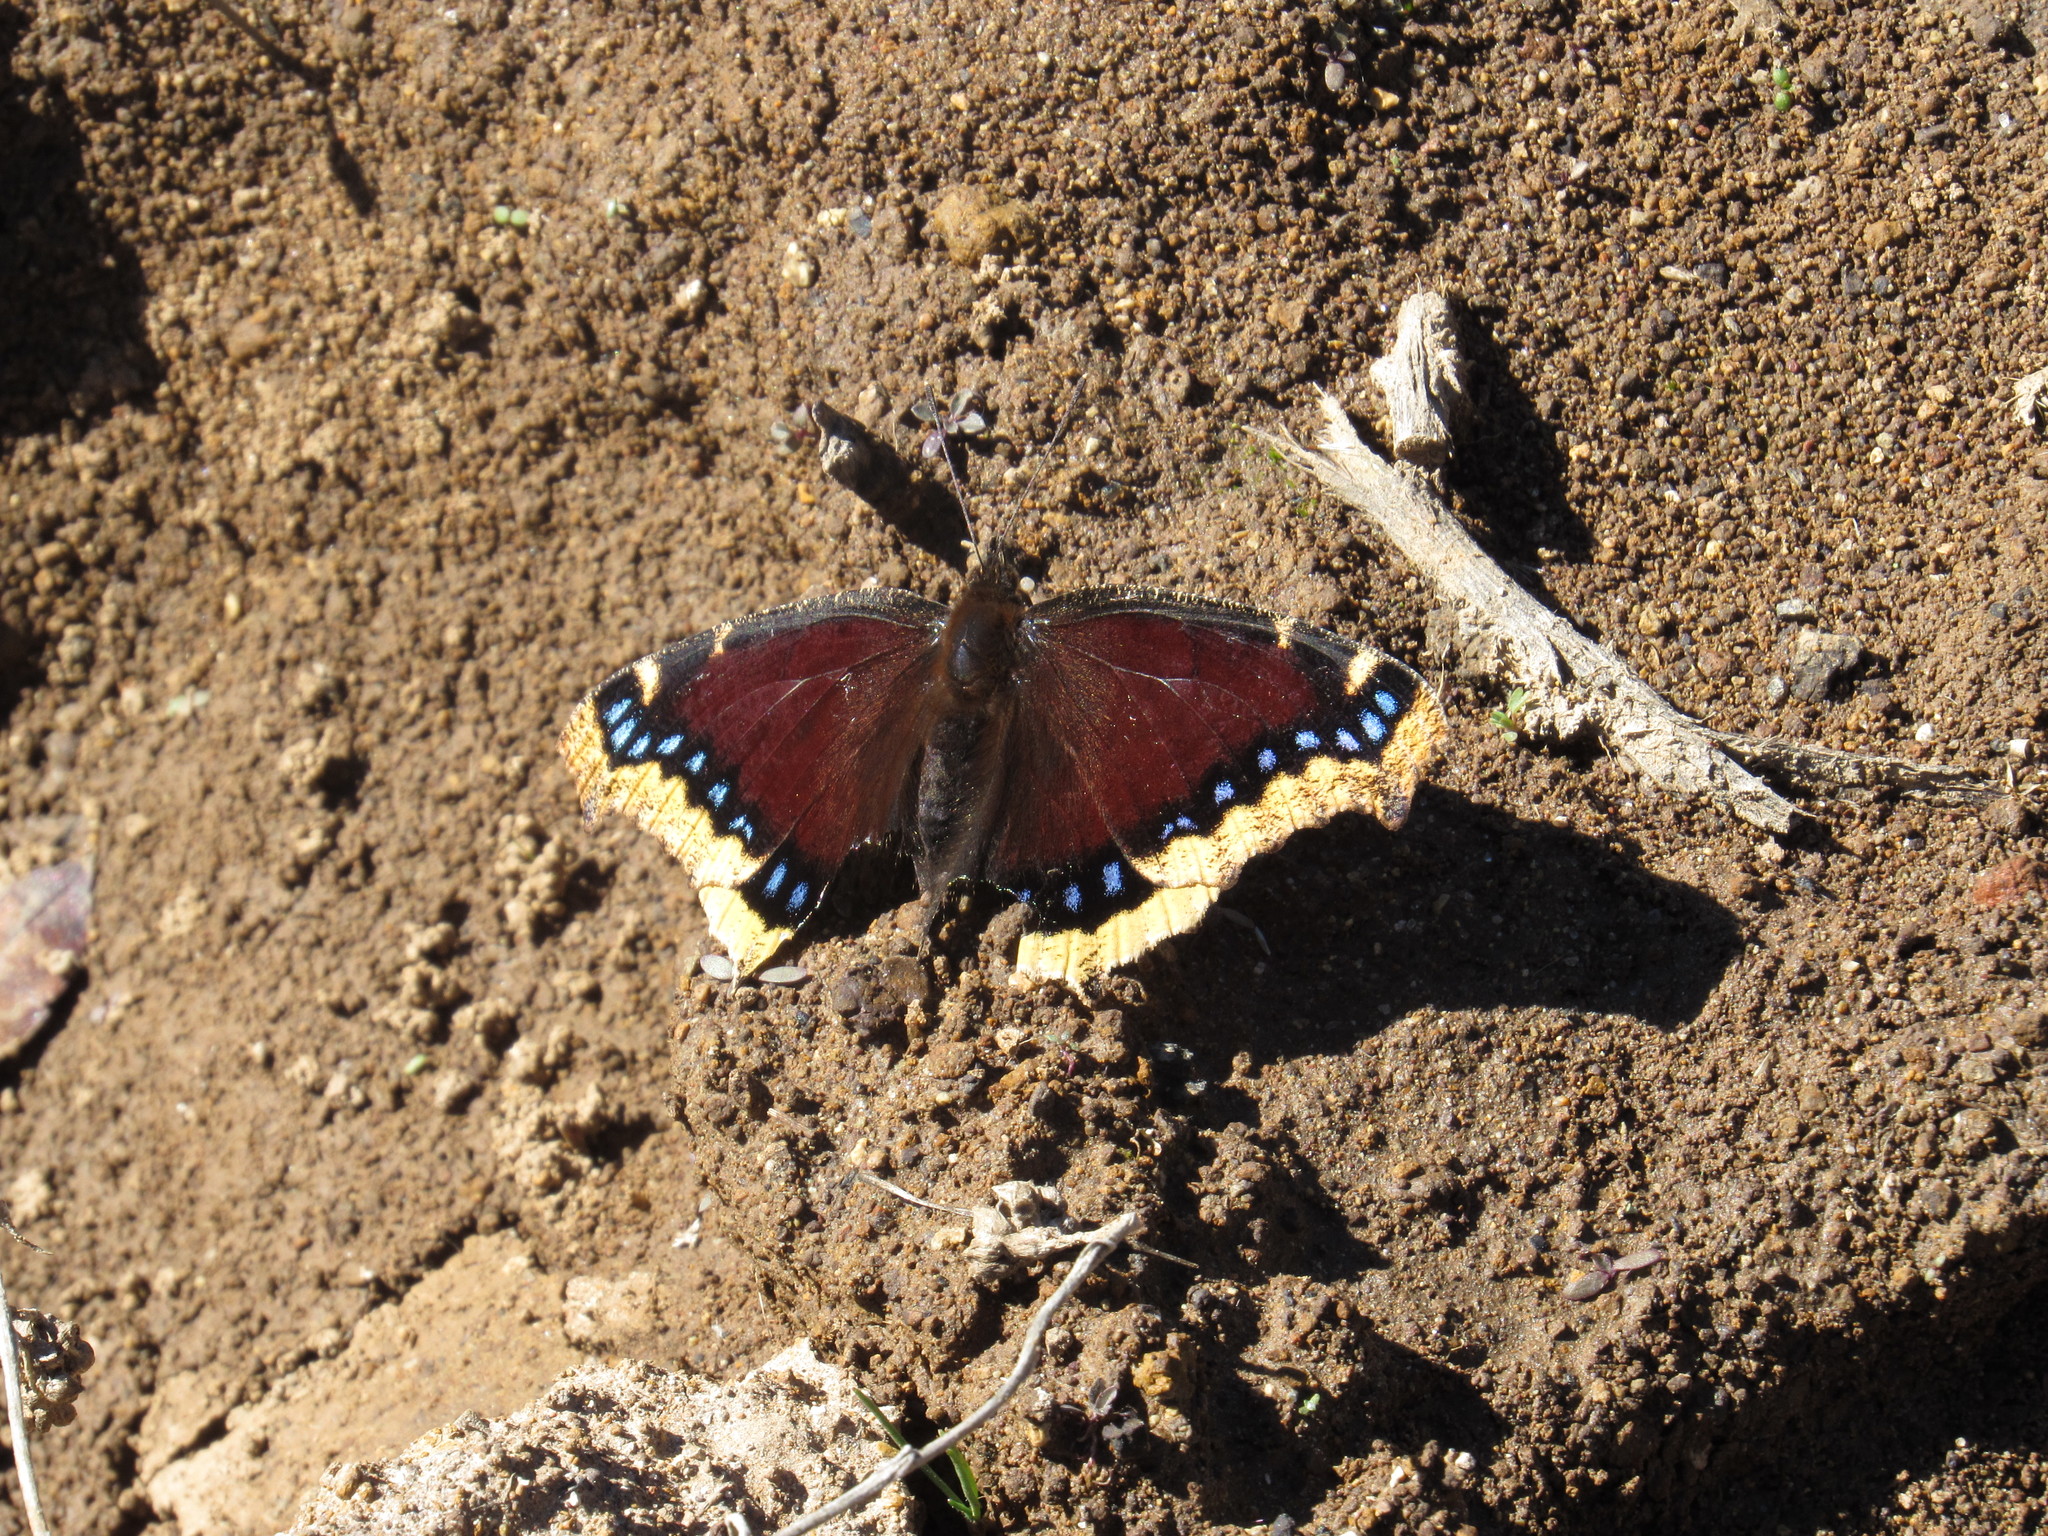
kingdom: Animalia
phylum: Arthropoda
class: Insecta
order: Lepidoptera
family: Nymphalidae
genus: Nymphalis
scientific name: Nymphalis antiopa
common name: Camberwell beauty
